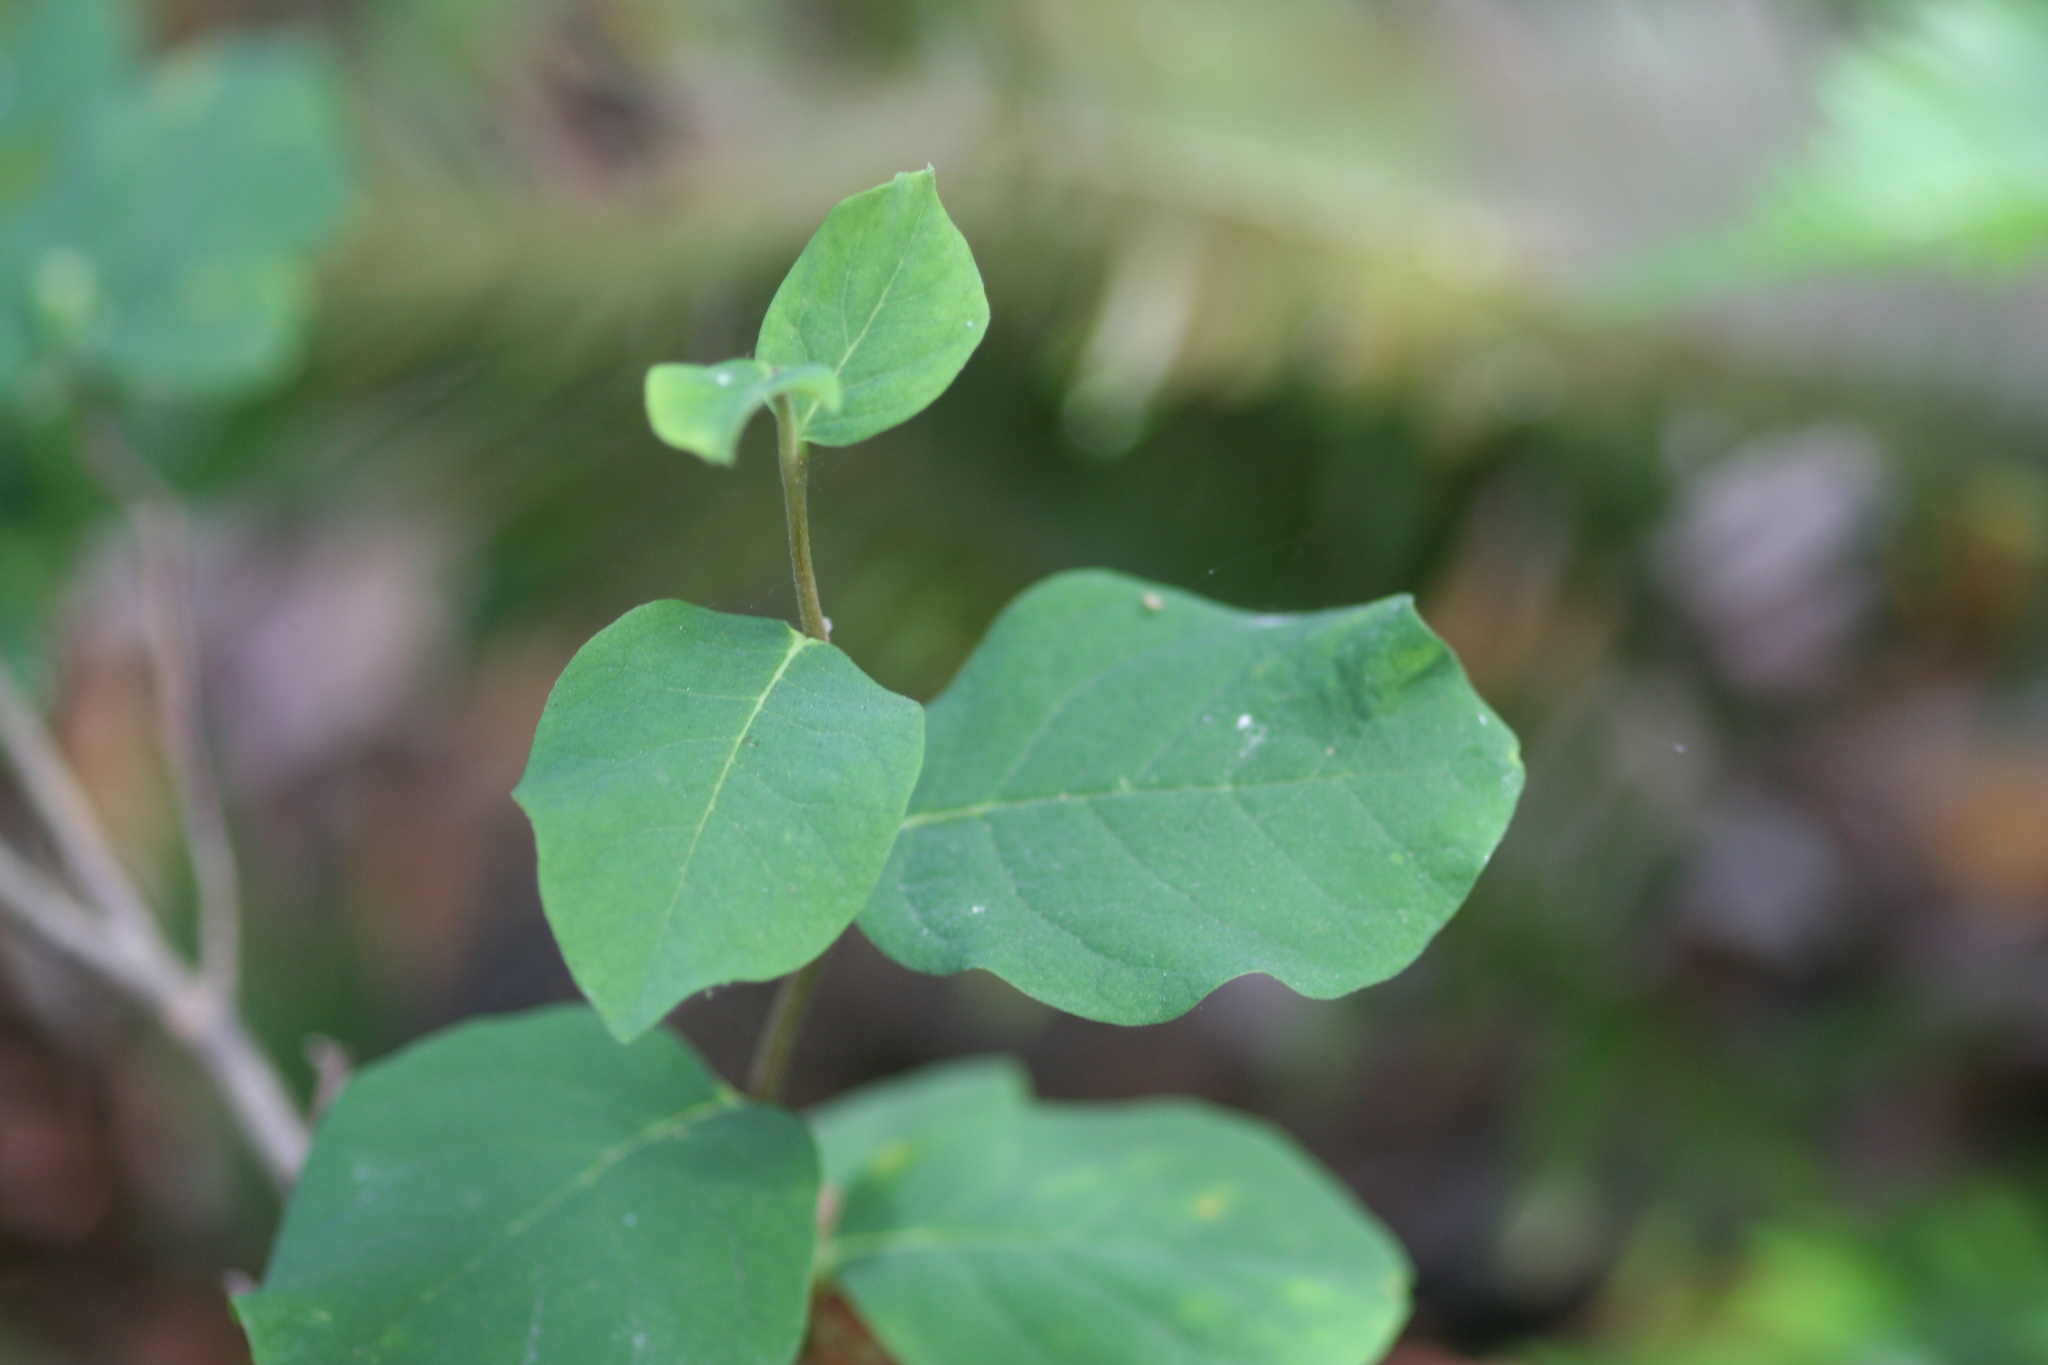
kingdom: Plantae
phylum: Tracheophyta
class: Magnoliopsida
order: Malvales
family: Thymelaeaceae
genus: Dirca
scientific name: Dirca occidentalis
